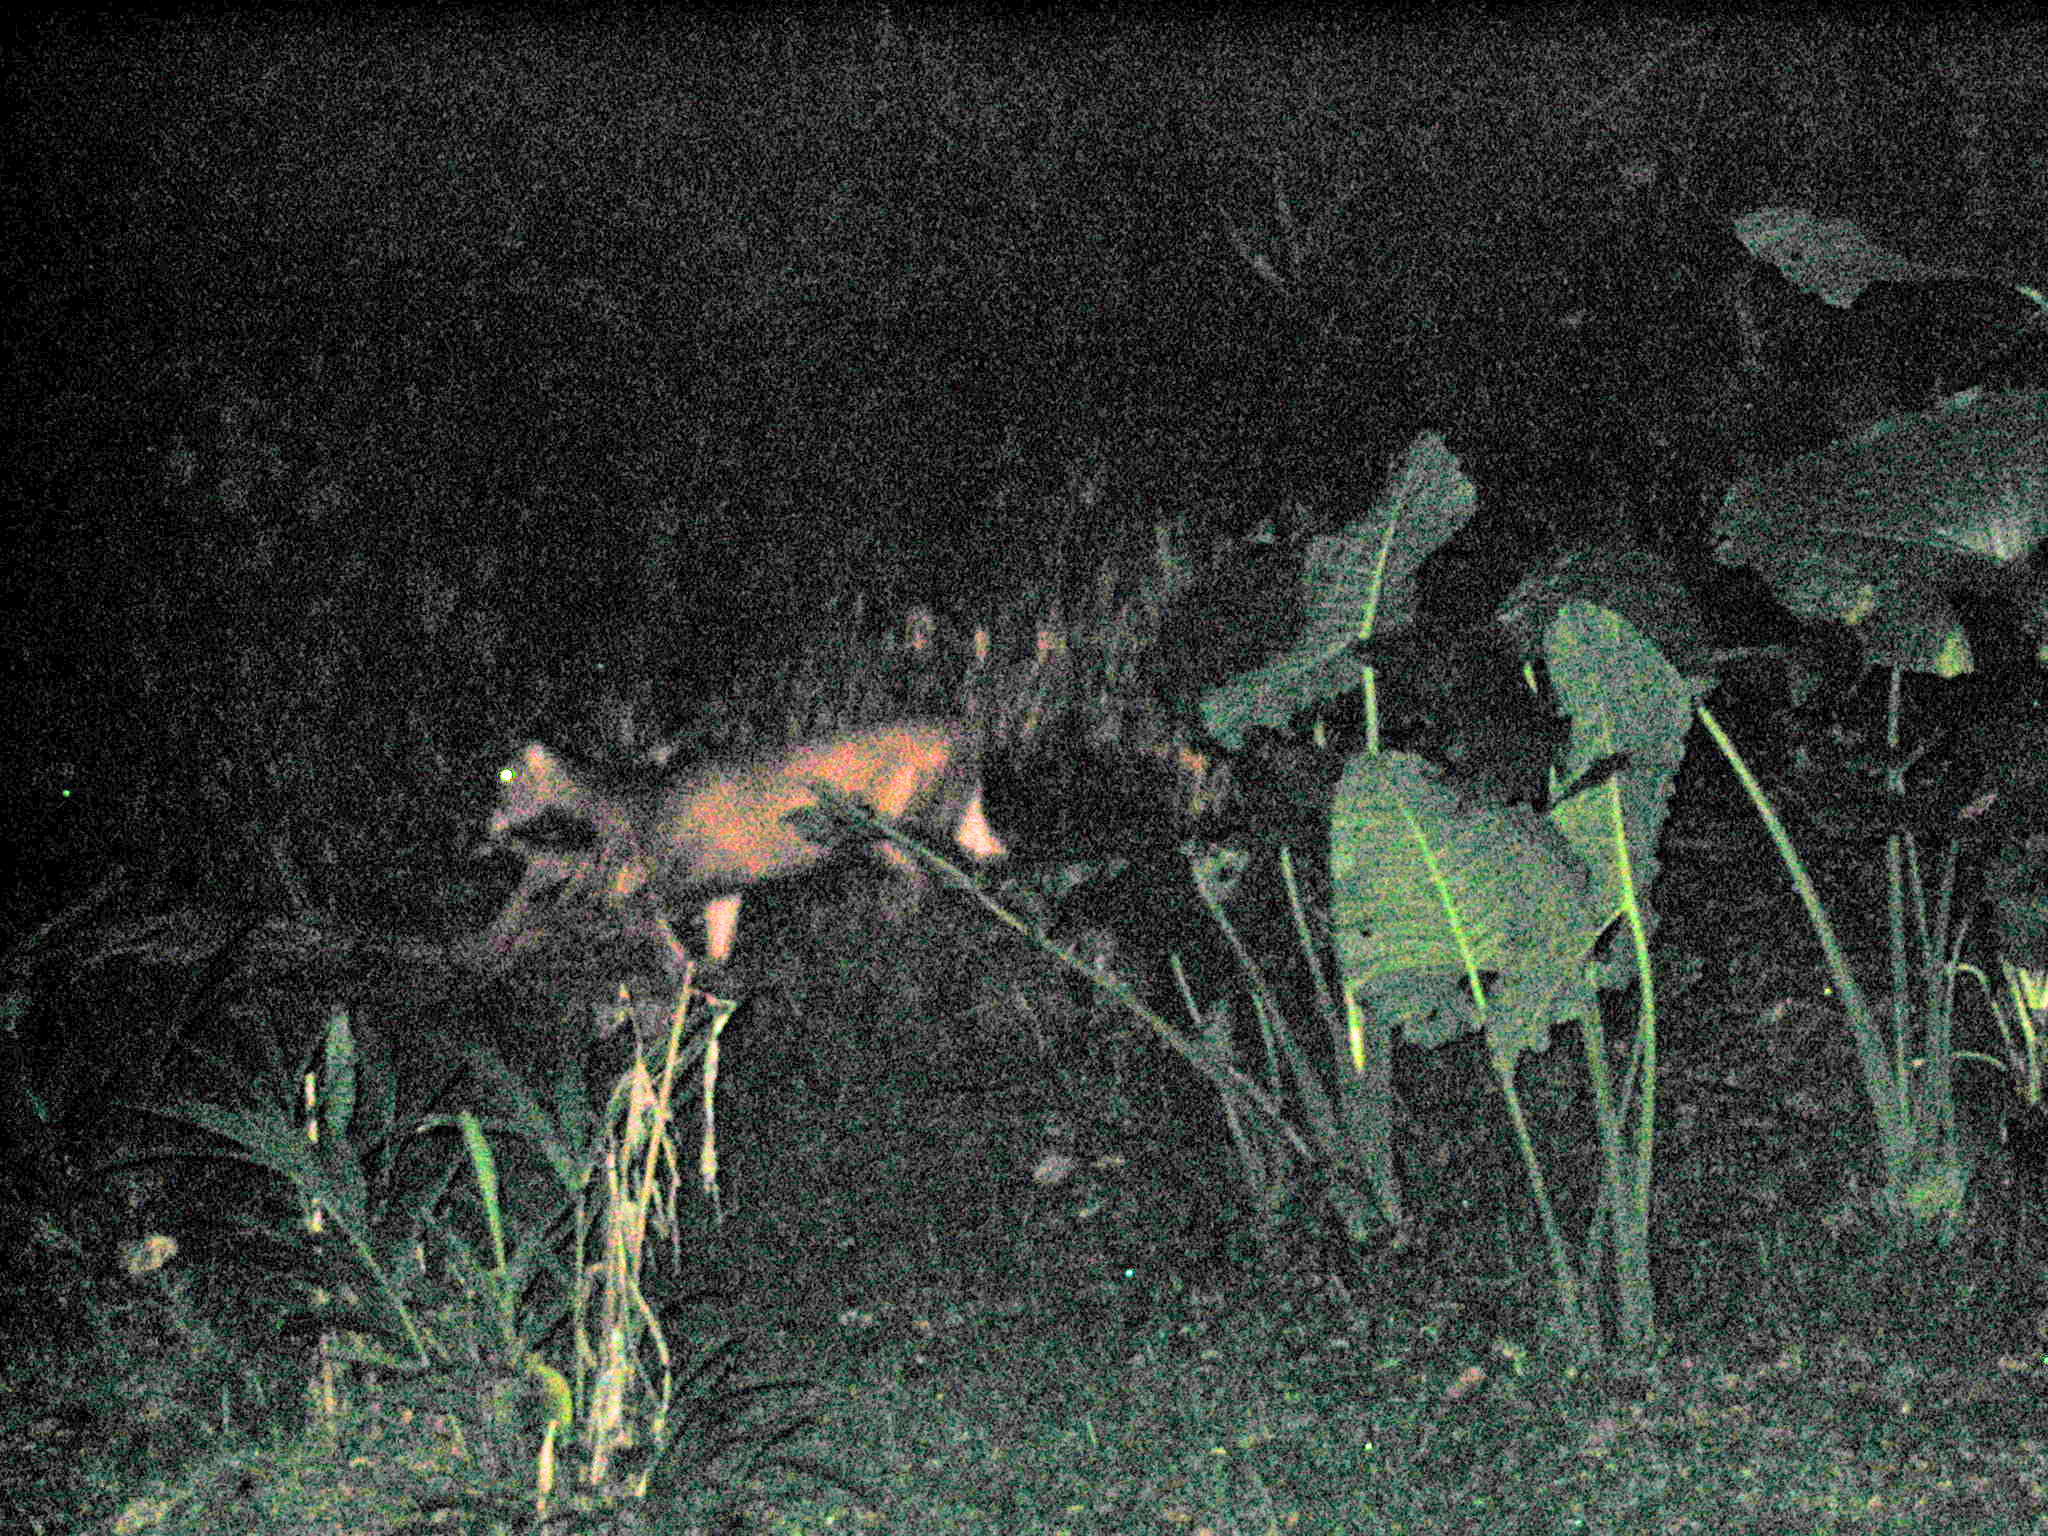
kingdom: Animalia
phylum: Chordata
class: Mammalia
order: Artiodactyla
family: Cervidae
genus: Rusa
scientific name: Rusa unicolor
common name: Sambar
